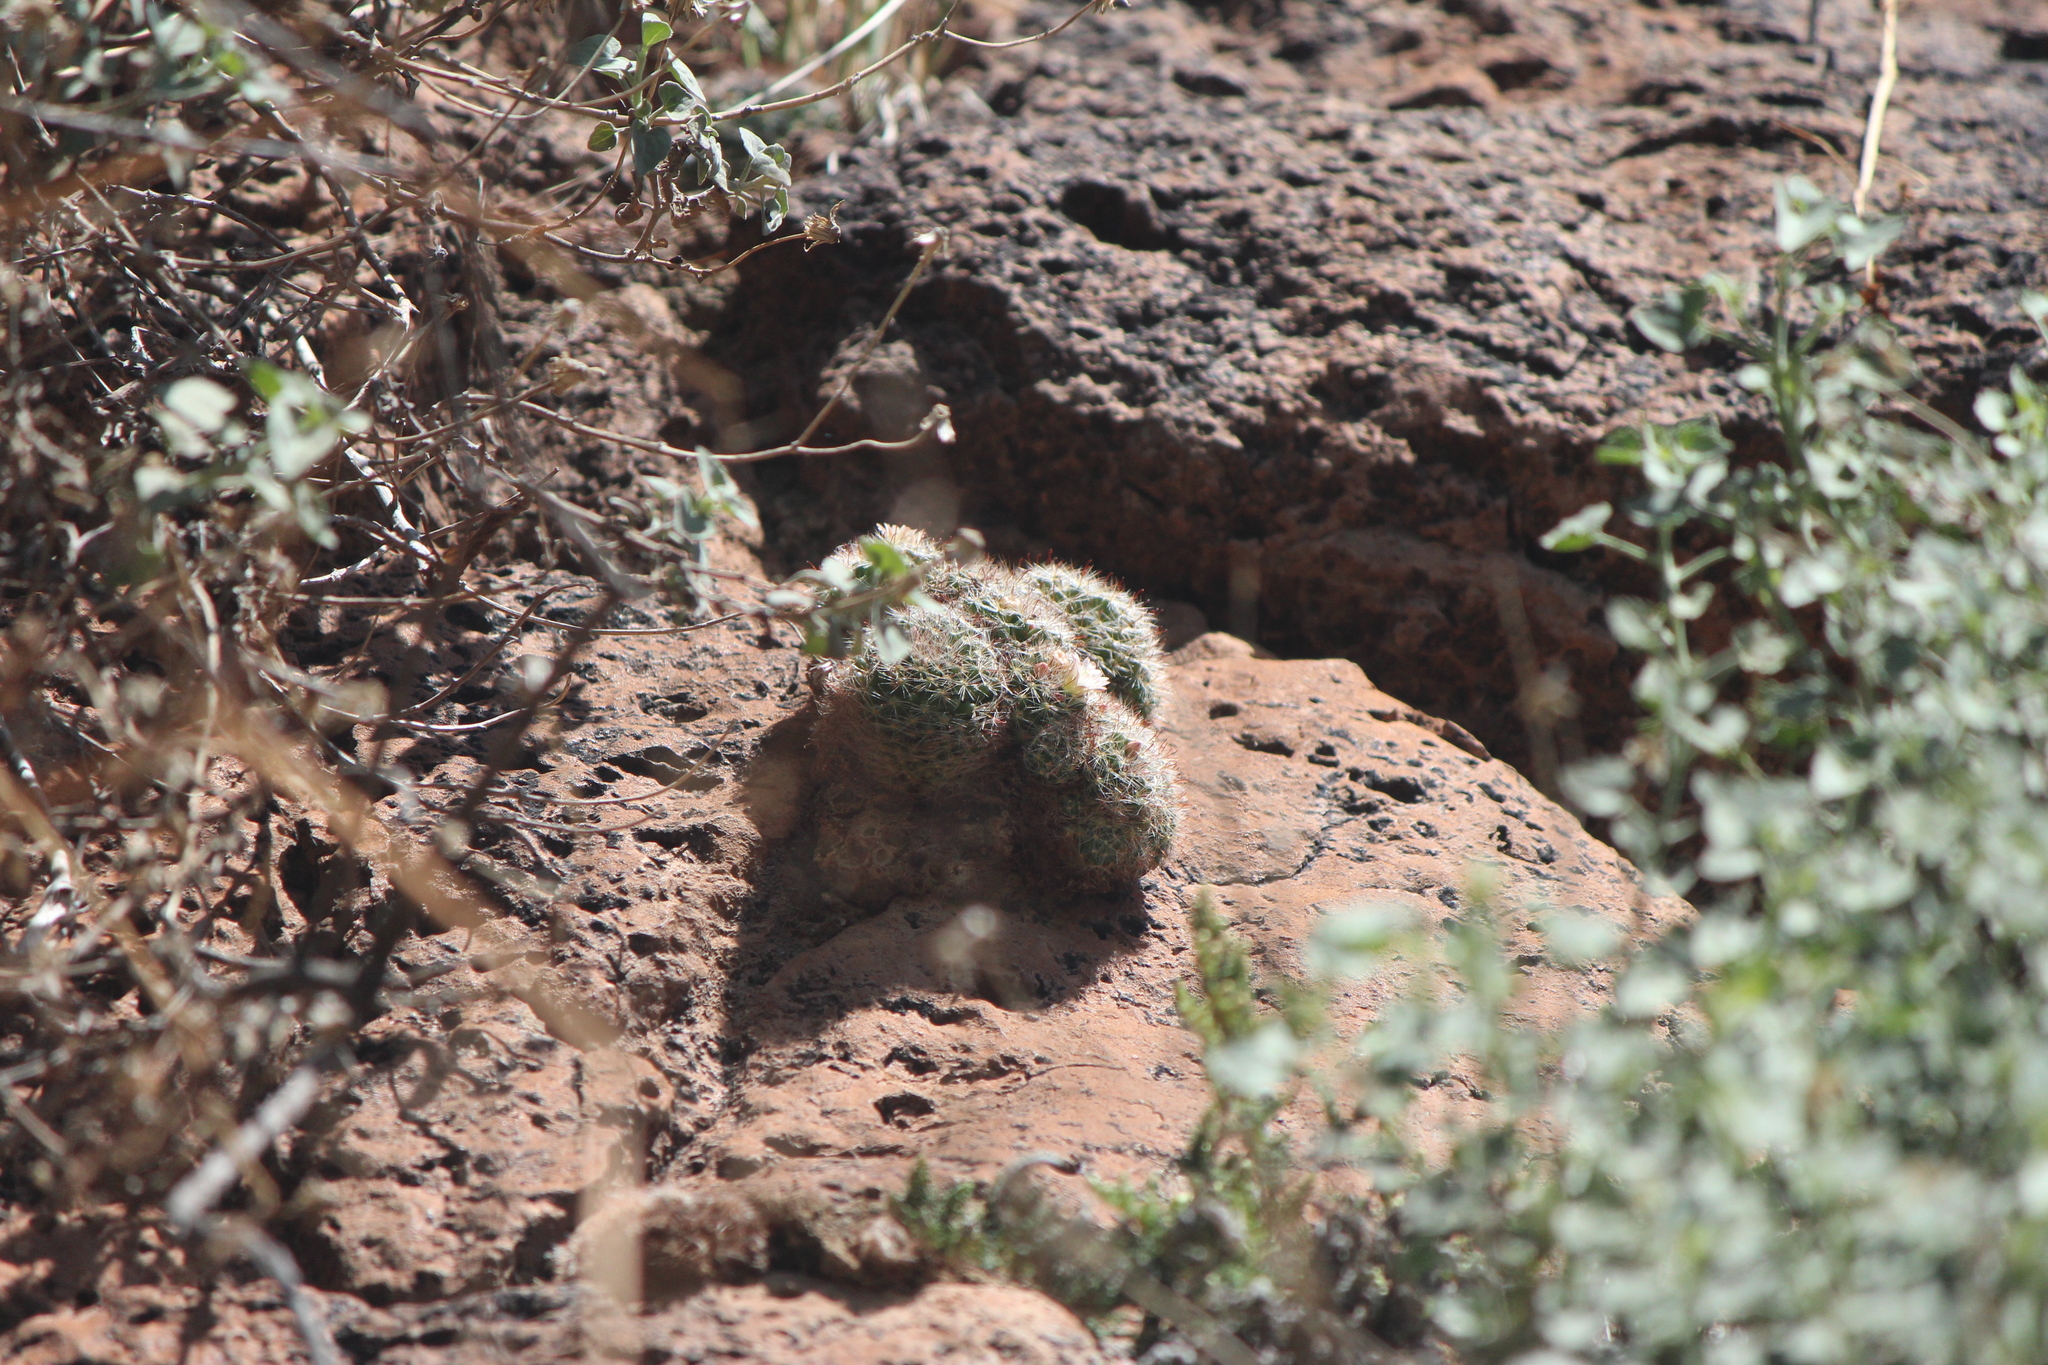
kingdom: Plantae
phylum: Tracheophyta
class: Magnoliopsida
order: Caryophyllales
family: Cactaceae
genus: Mammillaria
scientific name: Mammillaria crinita
